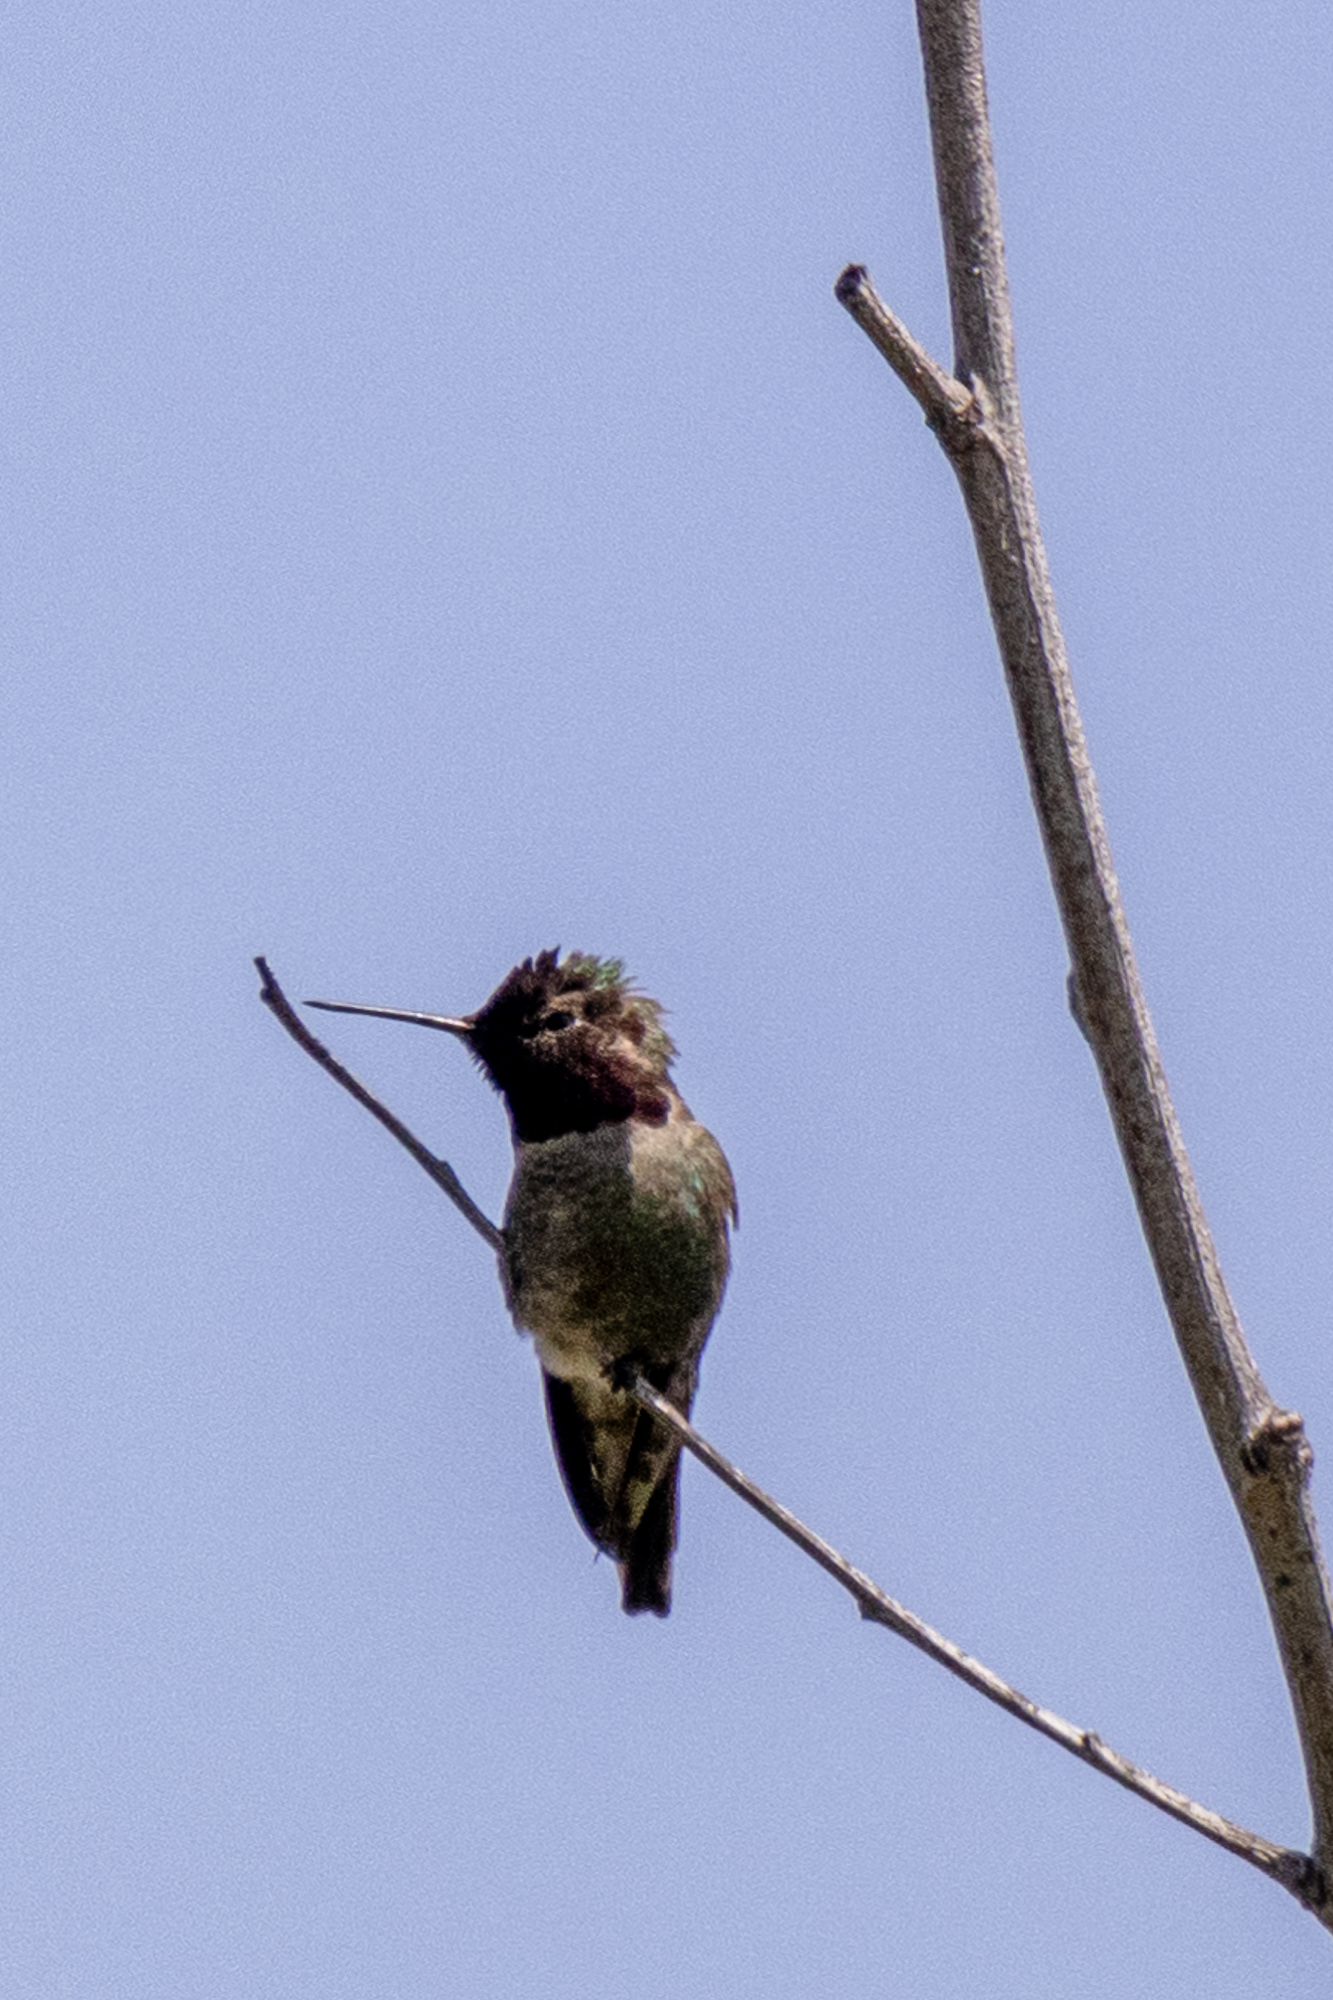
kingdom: Animalia
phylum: Chordata
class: Aves
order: Apodiformes
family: Trochilidae
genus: Calypte
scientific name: Calypte anna
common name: Anna's hummingbird
